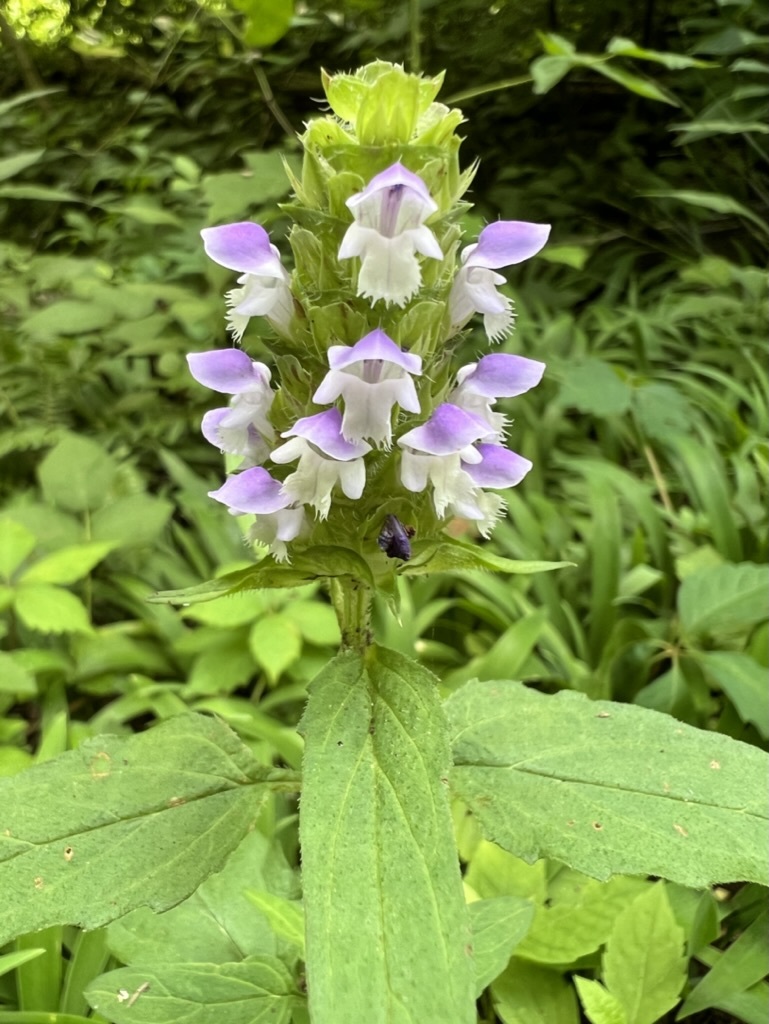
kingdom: Plantae
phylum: Tracheophyta
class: Magnoliopsida
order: Lamiales
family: Lamiaceae
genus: Prunella
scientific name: Prunella vulgaris
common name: Heal-all
